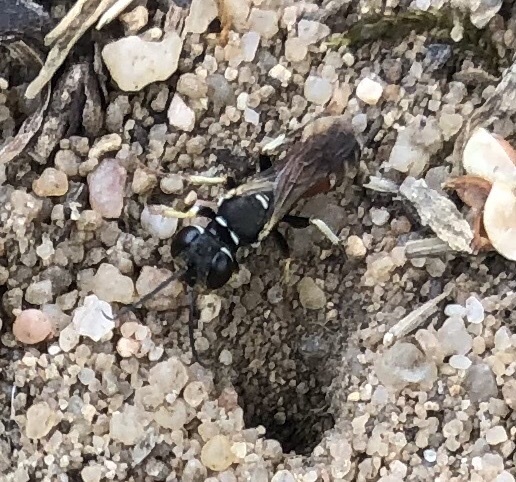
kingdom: Animalia
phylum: Arthropoda
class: Insecta
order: Hymenoptera
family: Crabronidae
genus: Dinetus
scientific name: Dinetus pictus
